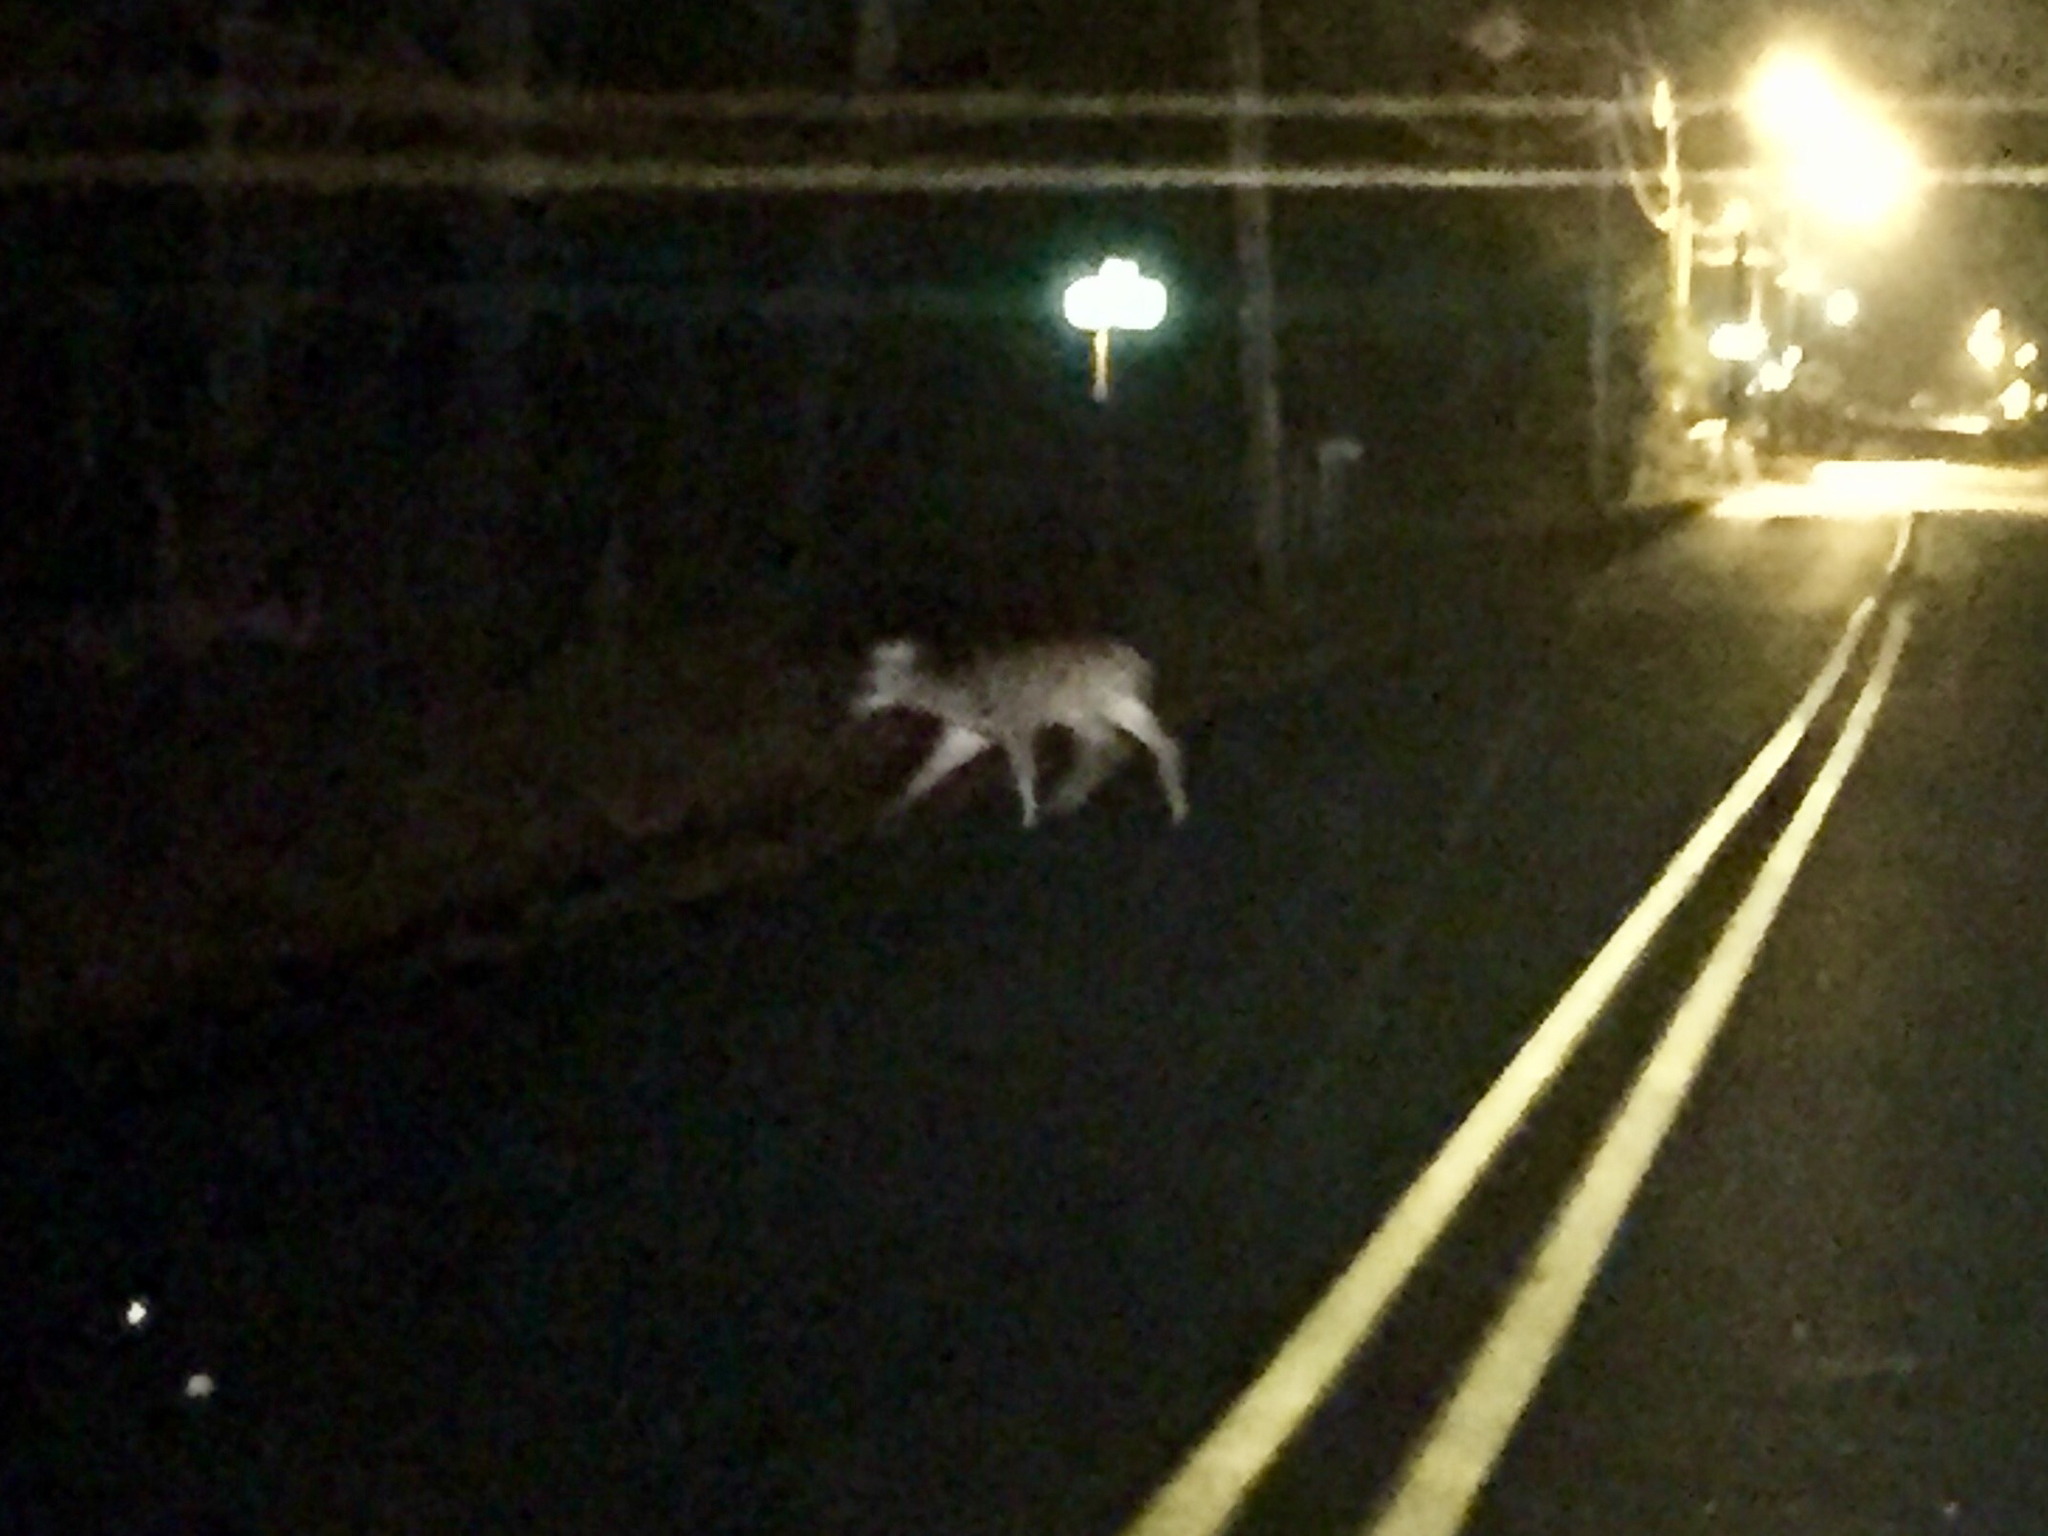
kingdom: Animalia
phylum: Chordata
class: Mammalia
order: Artiodactyla
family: Cervidae
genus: Odocoileus
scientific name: Odocoileus virginianus
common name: White-tailed deer
